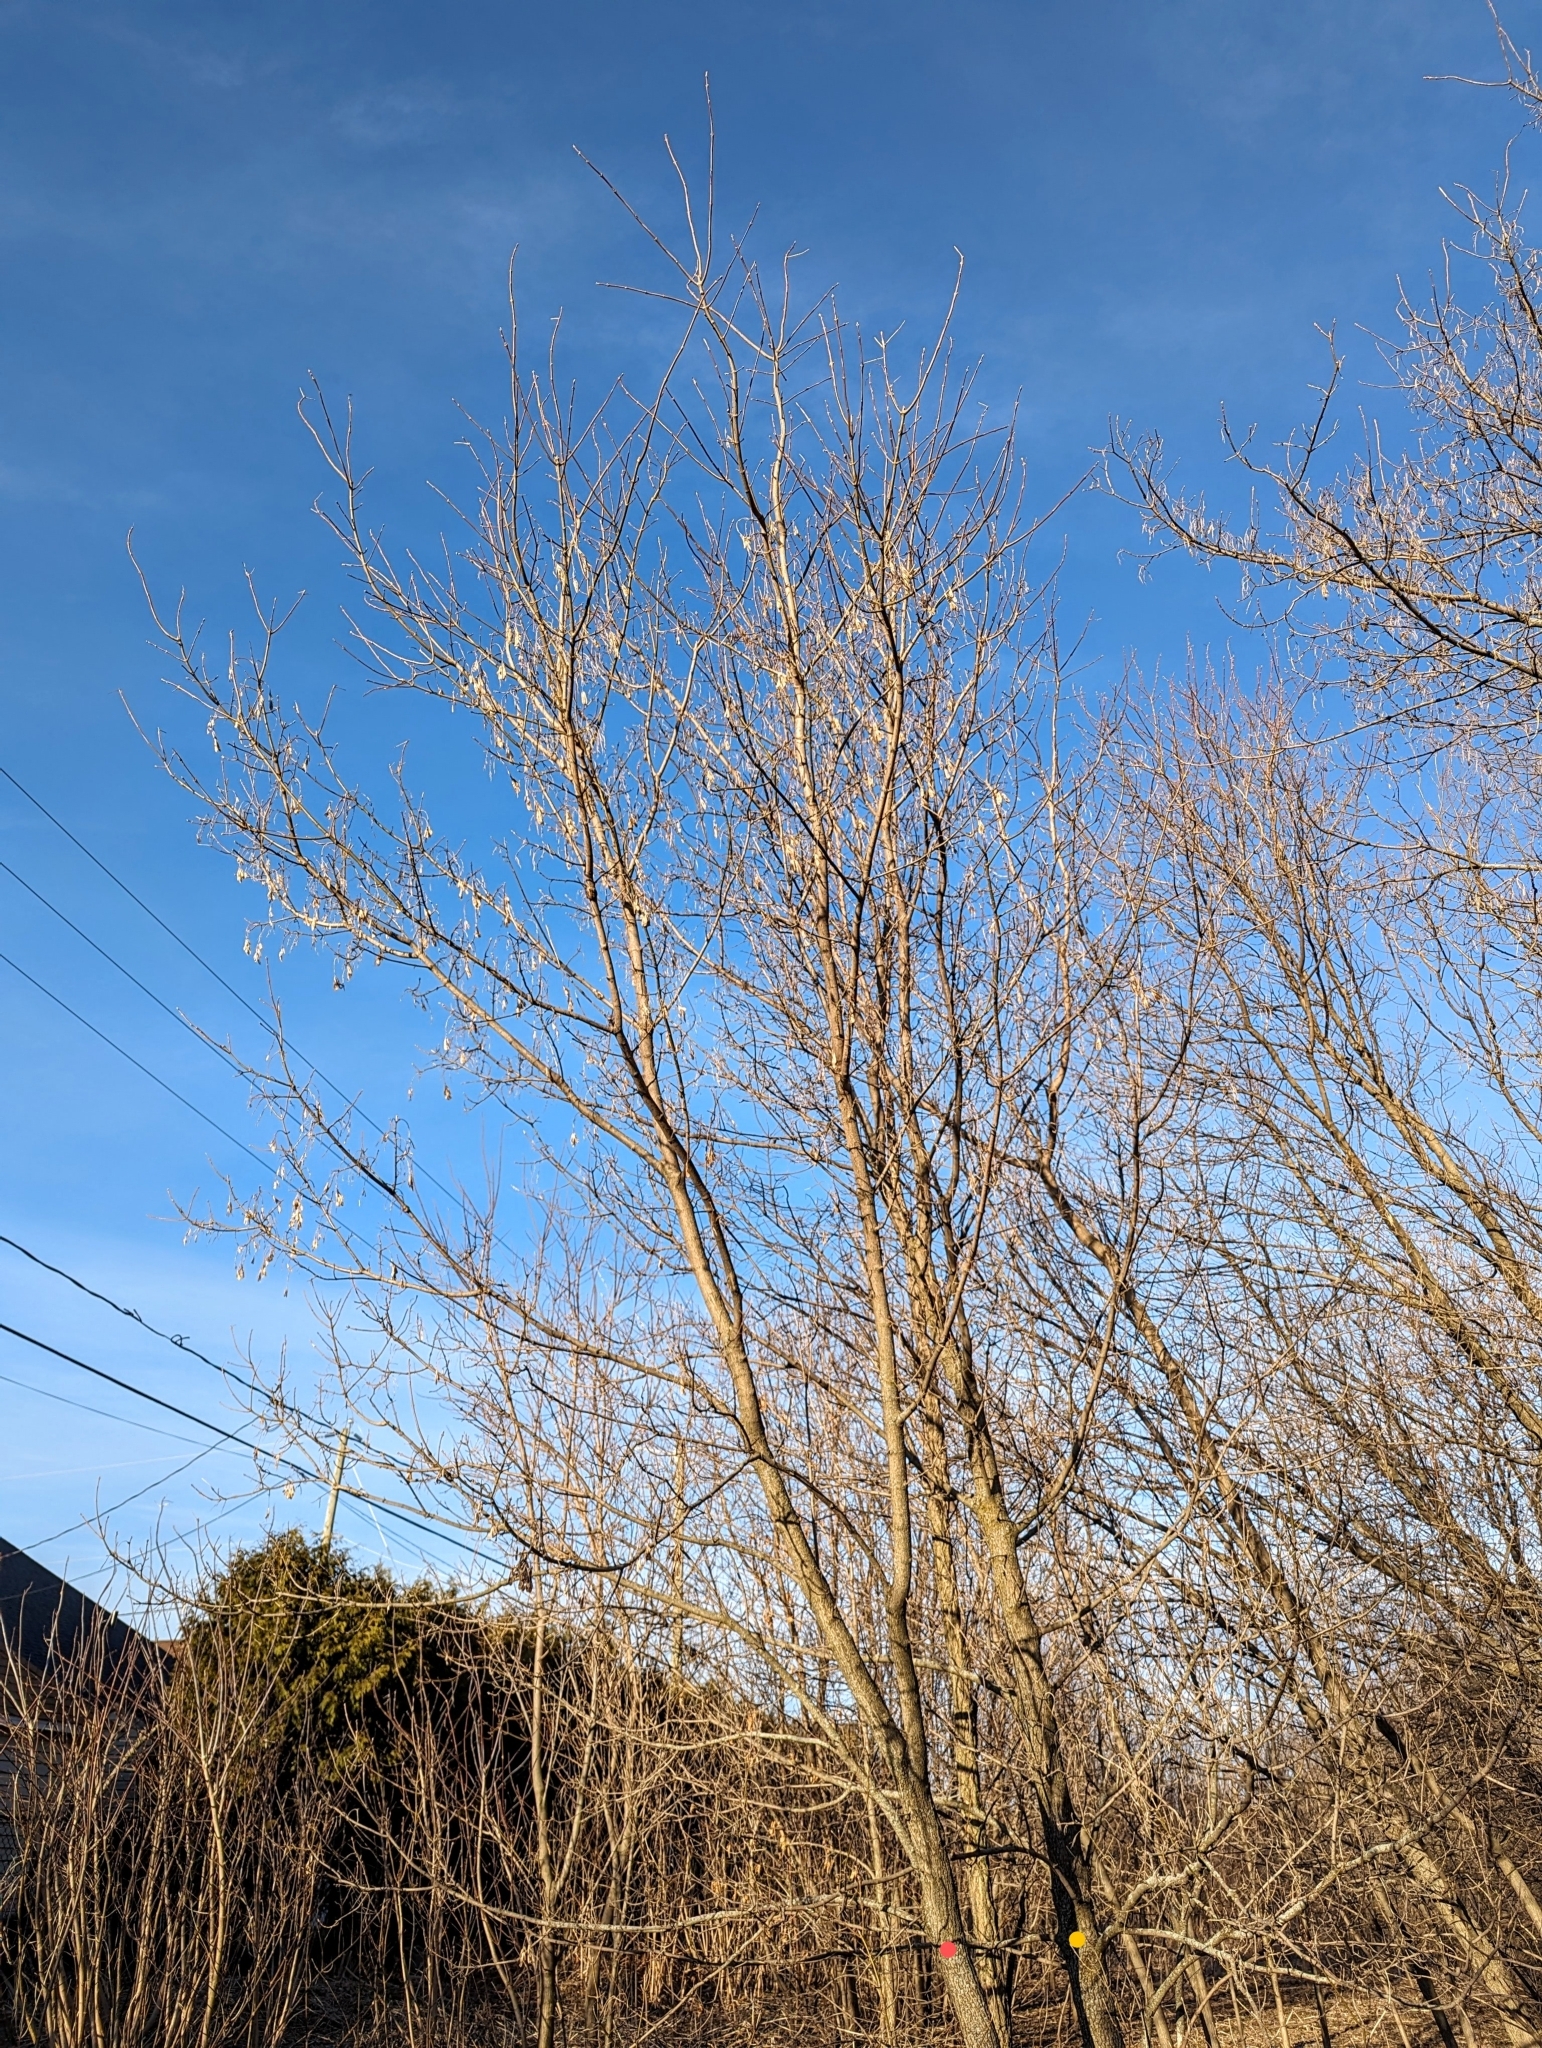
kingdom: Plantae
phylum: Tracheophyta
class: Magnoliopsida
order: Sapindales
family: Sapindaceae
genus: Acer
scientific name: Acer negundo
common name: Ashleaf maple
